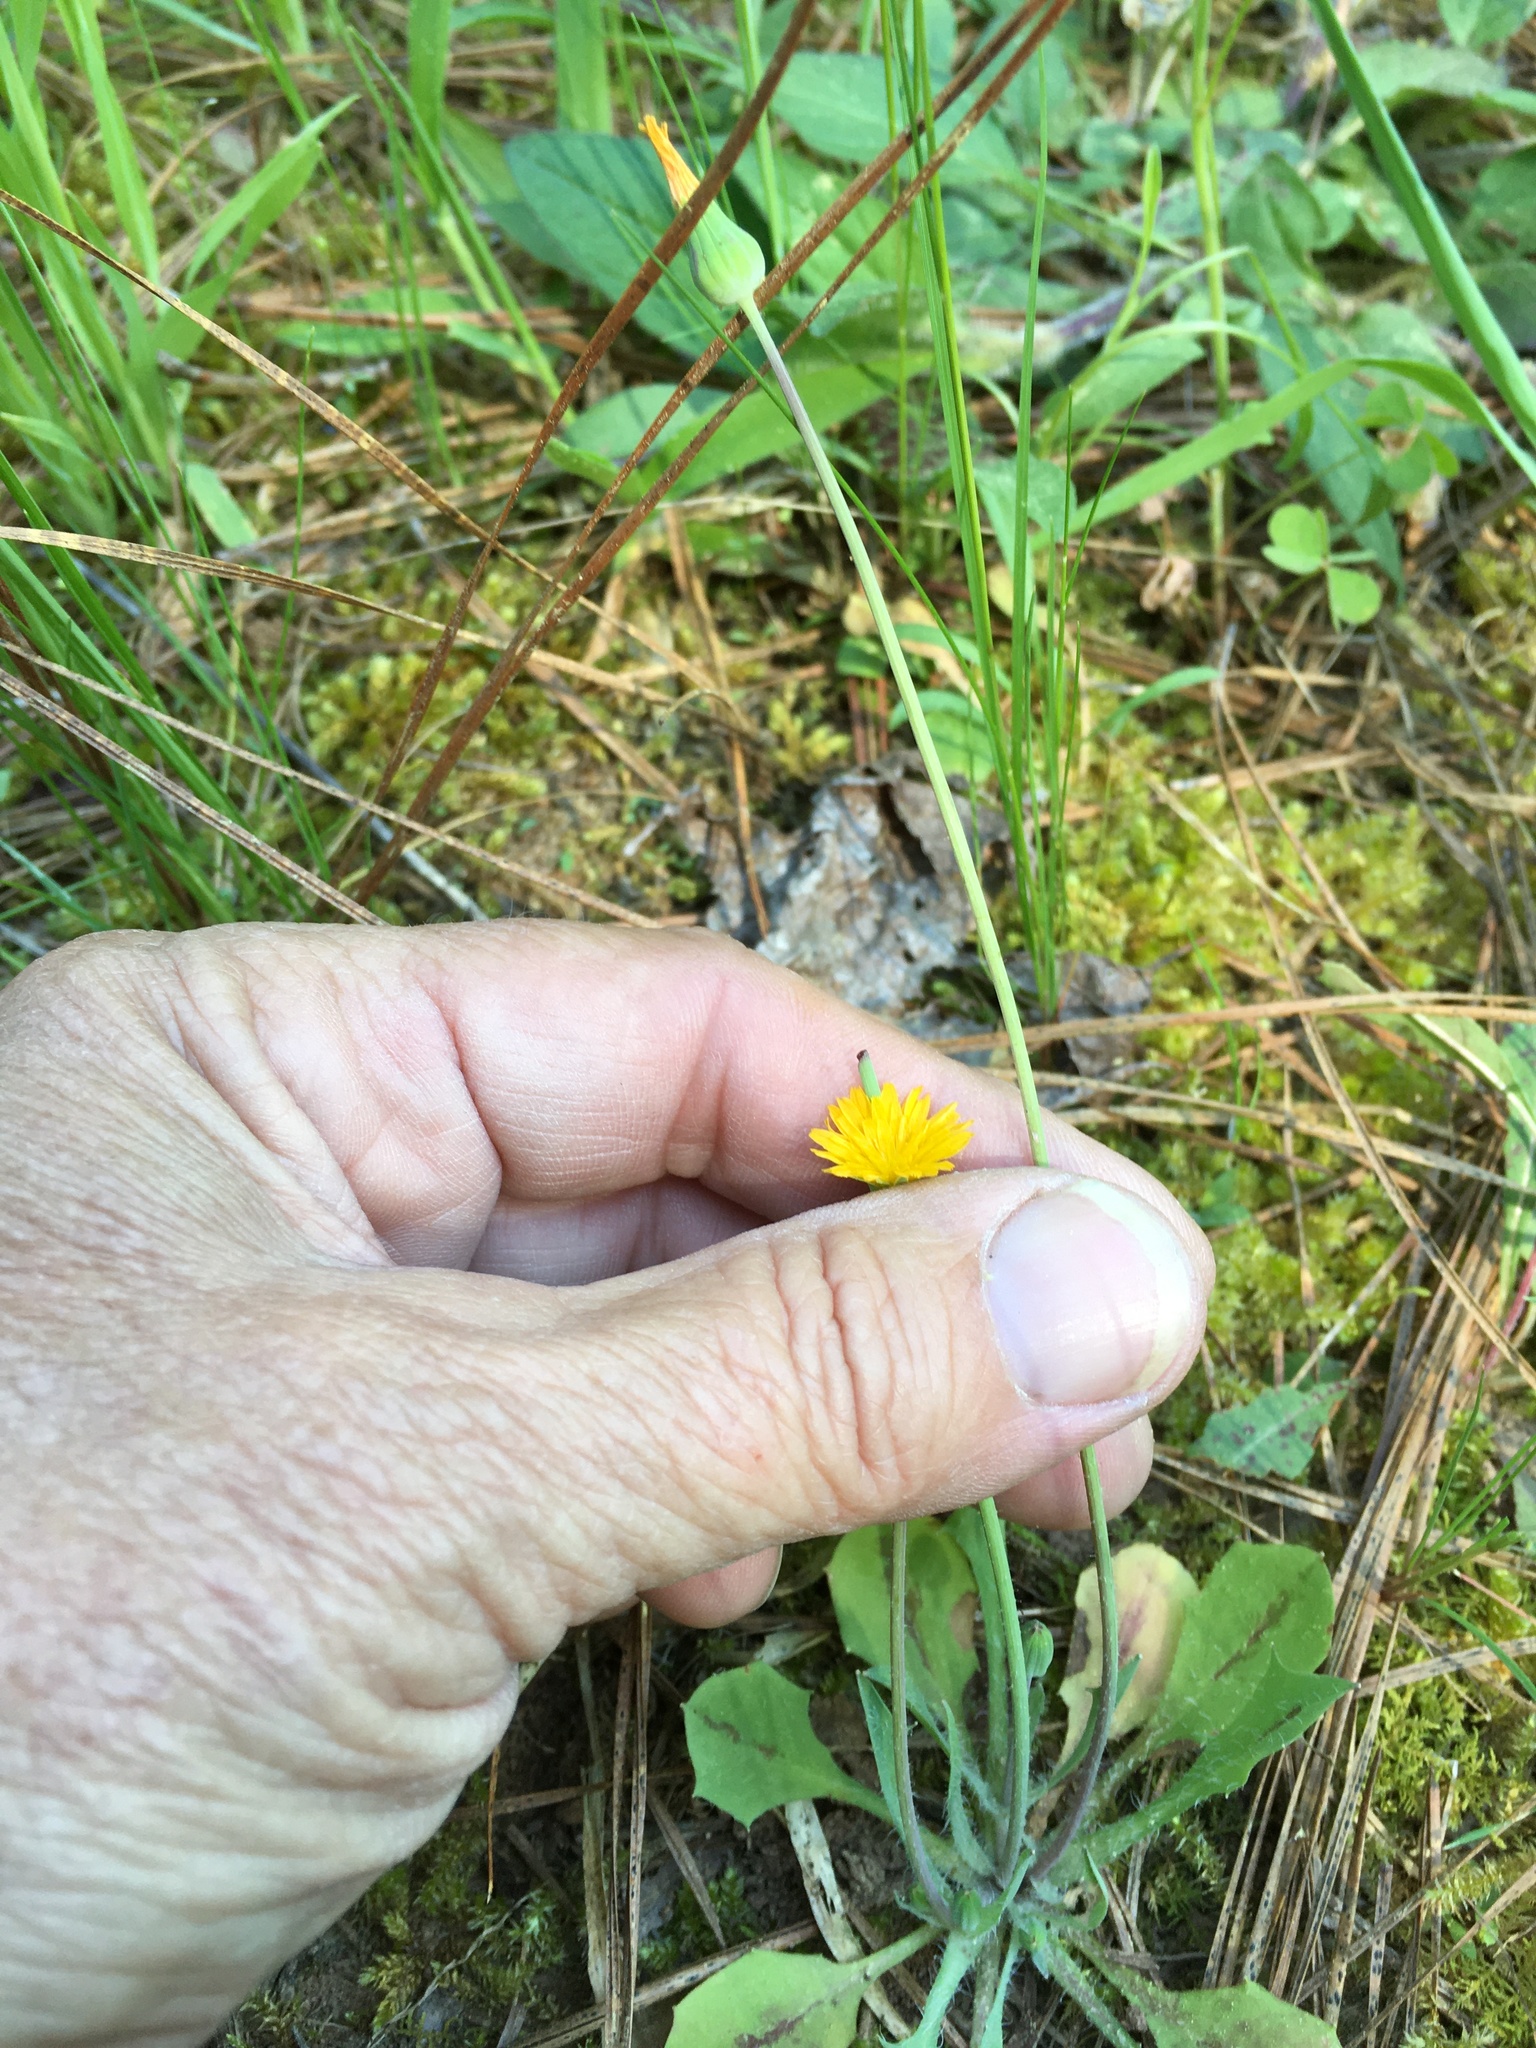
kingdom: Plantae
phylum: Tracheophyta
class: Magnoliopsida
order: Asterales
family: Asteraceae
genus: Krigia
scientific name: Krigia virginica
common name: Virginia dwarf-dandelion
